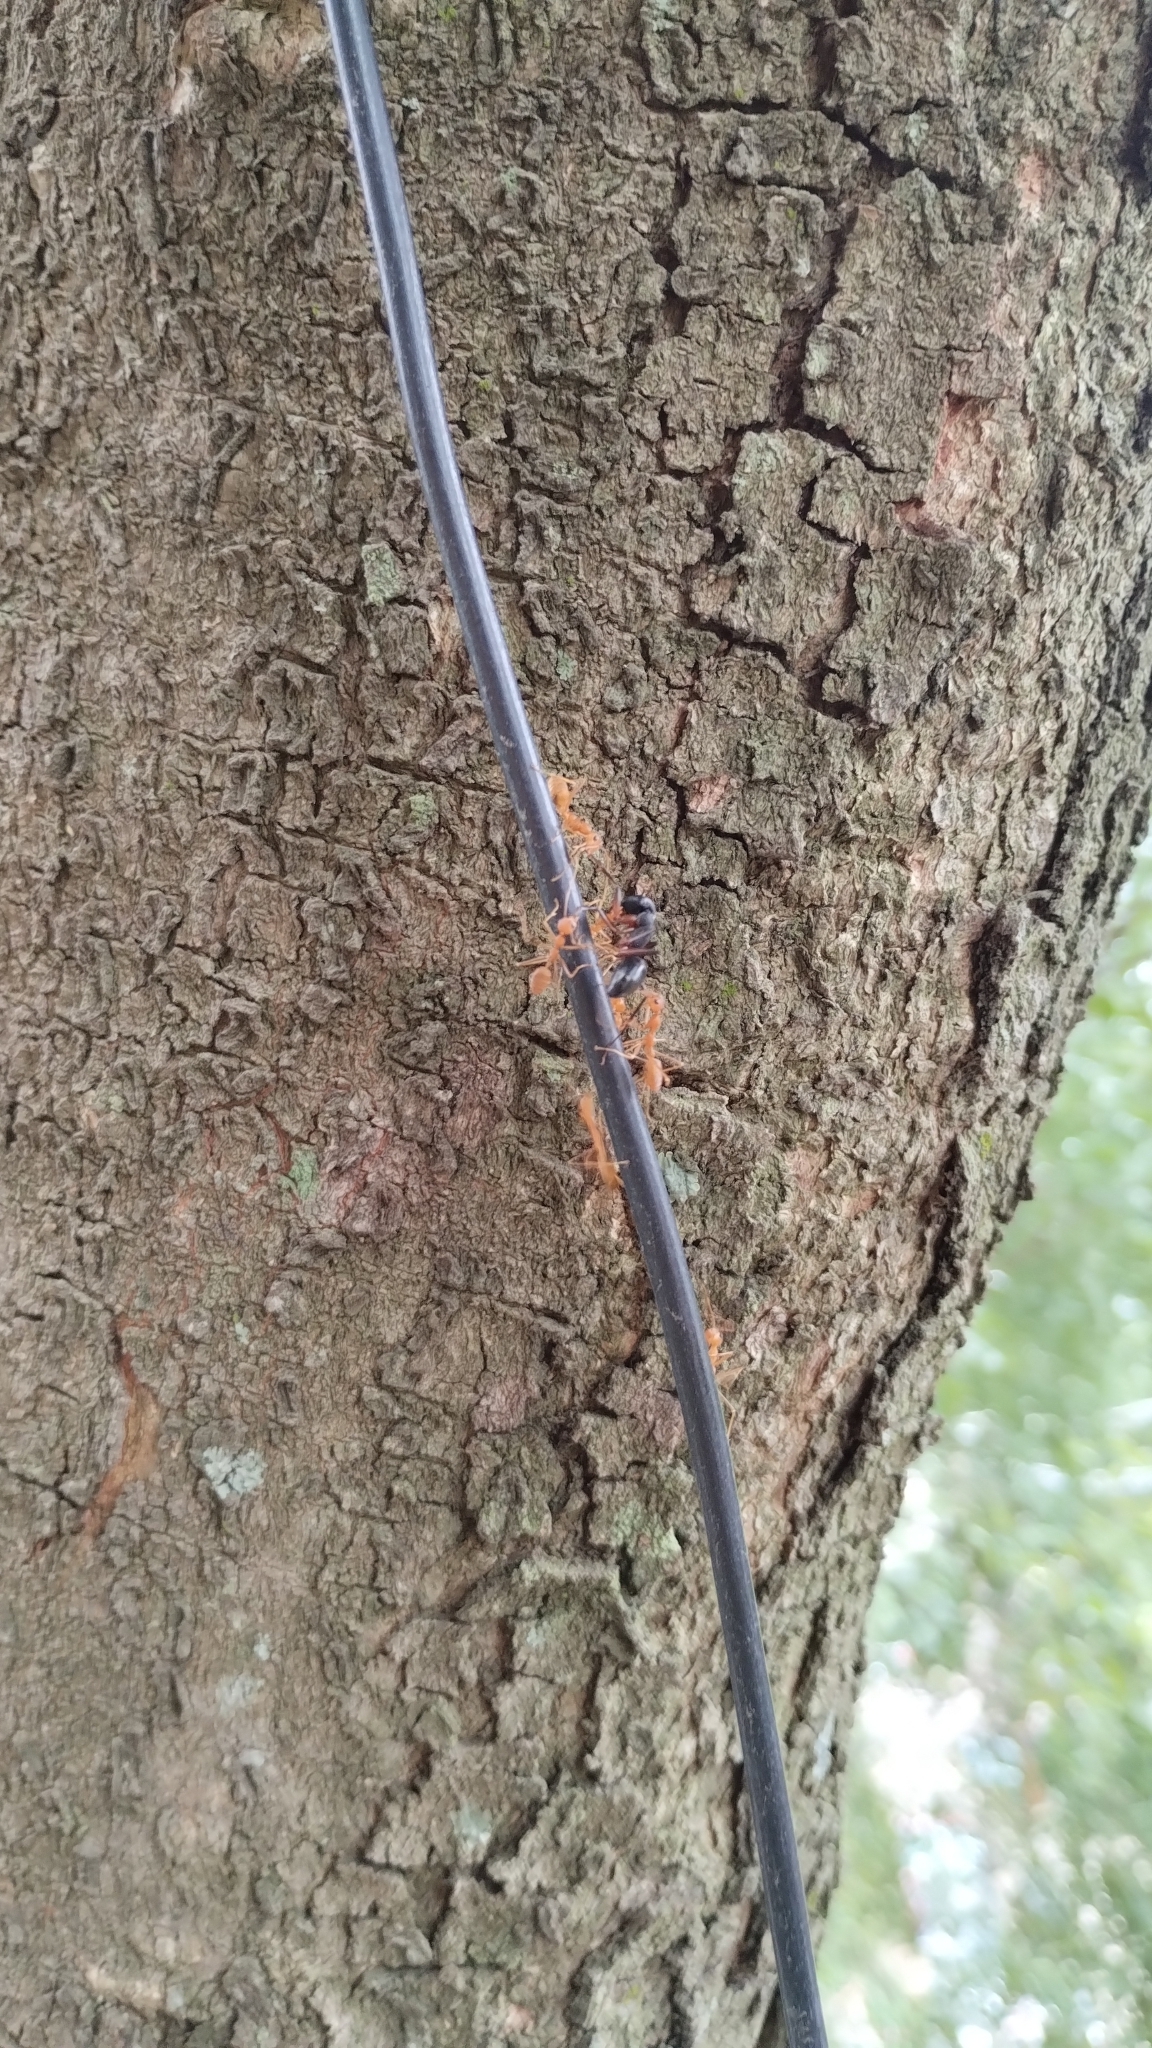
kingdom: Animalia
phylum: Arthropoda
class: Insecta
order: Hymenoptera
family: Formicidae
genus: Oecophylla
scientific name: Oecophylla smaragdina
